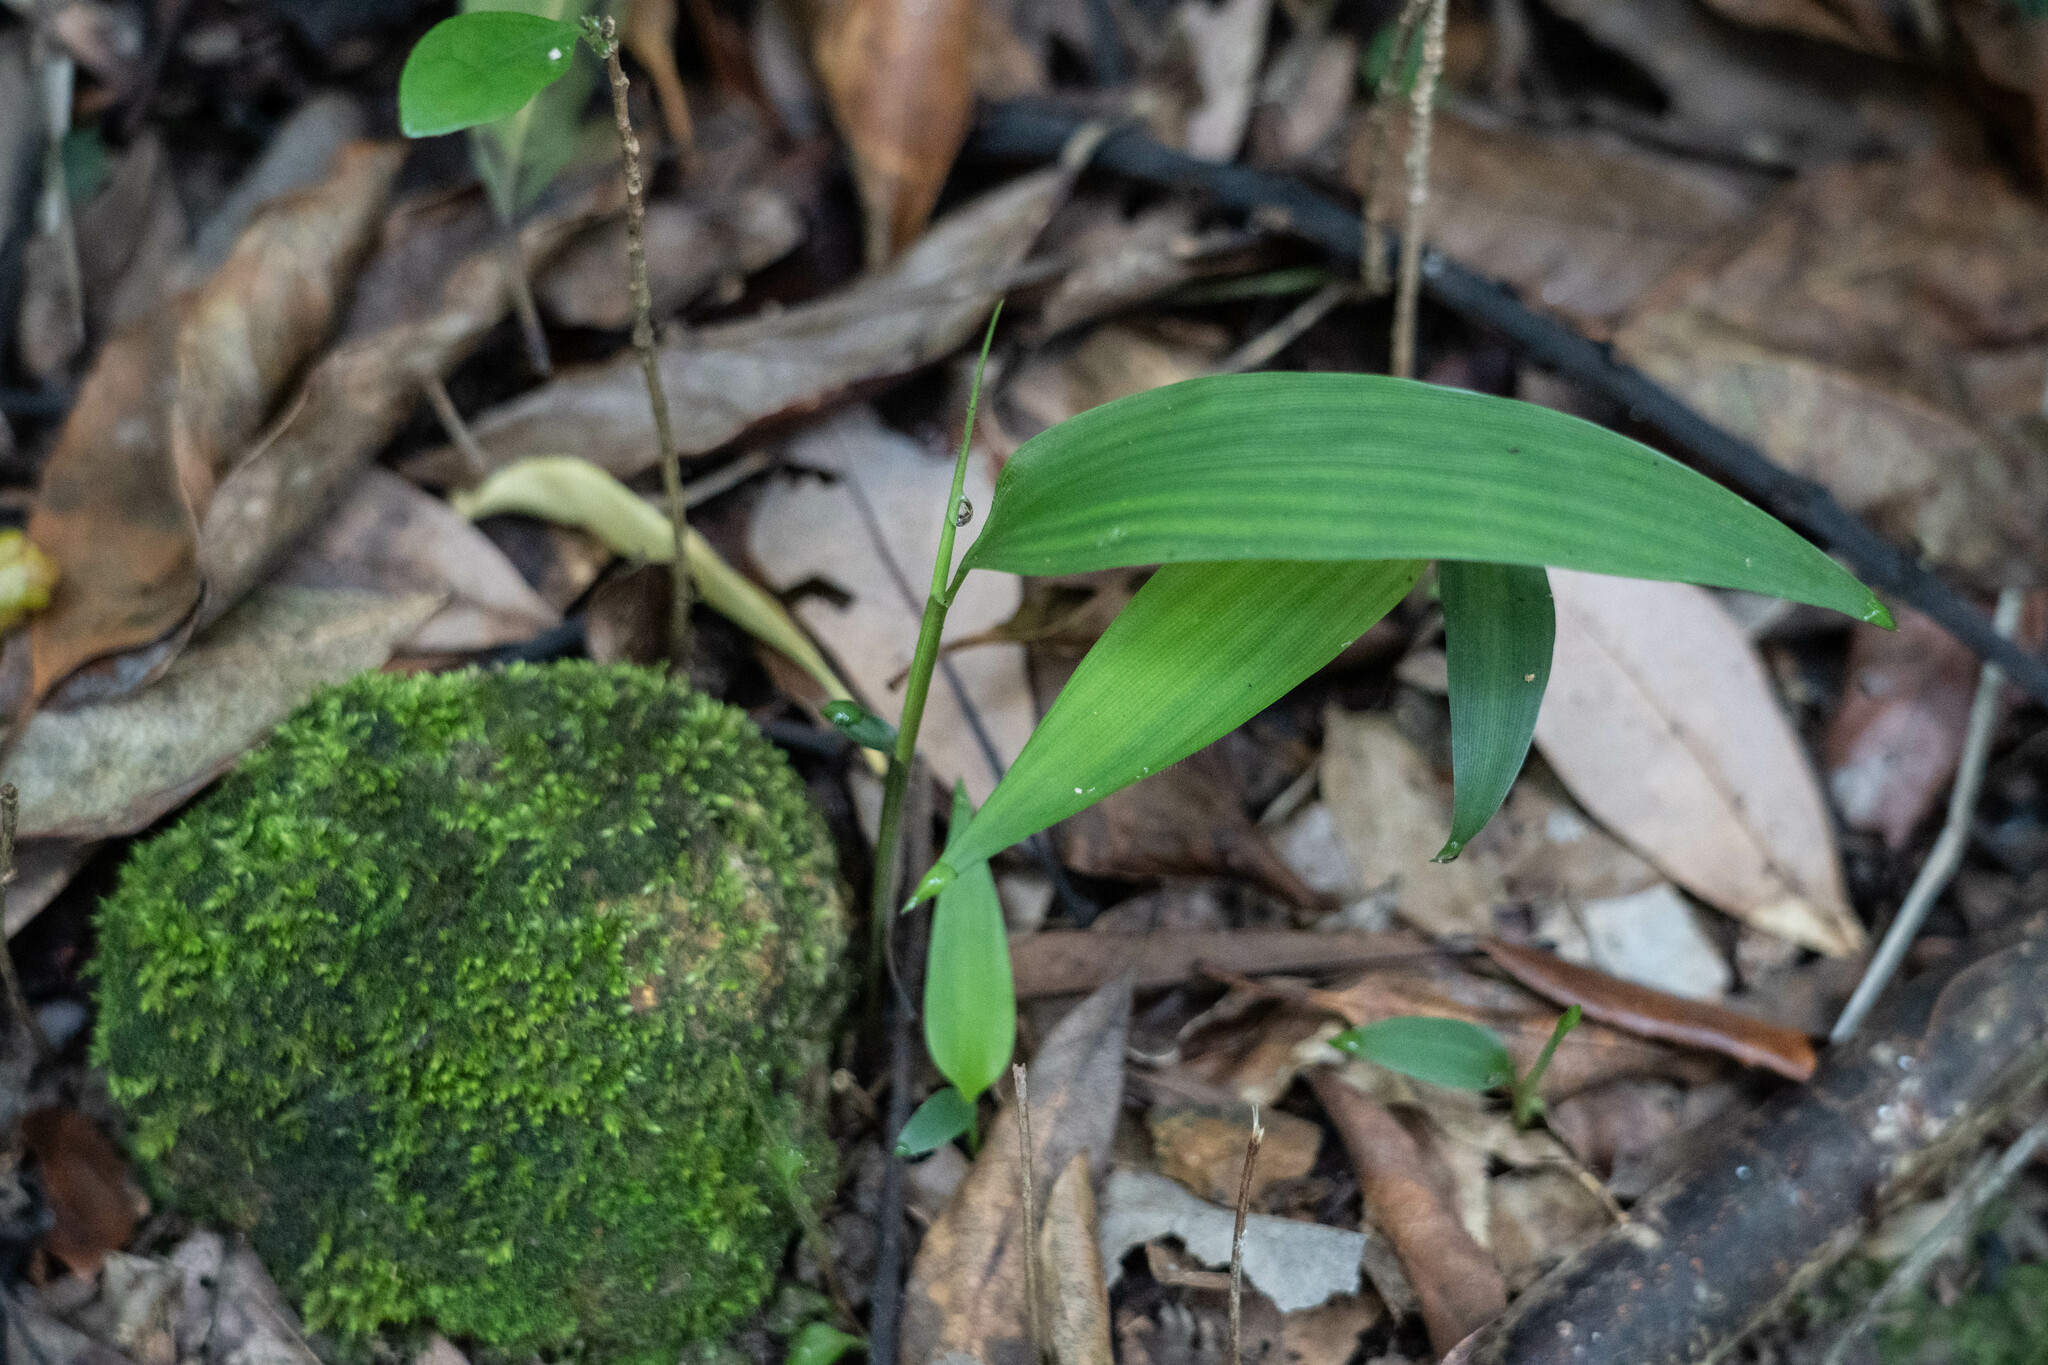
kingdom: Plantae
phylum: Tracheophyta
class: Liliopsida
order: Poales
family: Poaceae
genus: Lophatherum
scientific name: Lophatherum gracile
